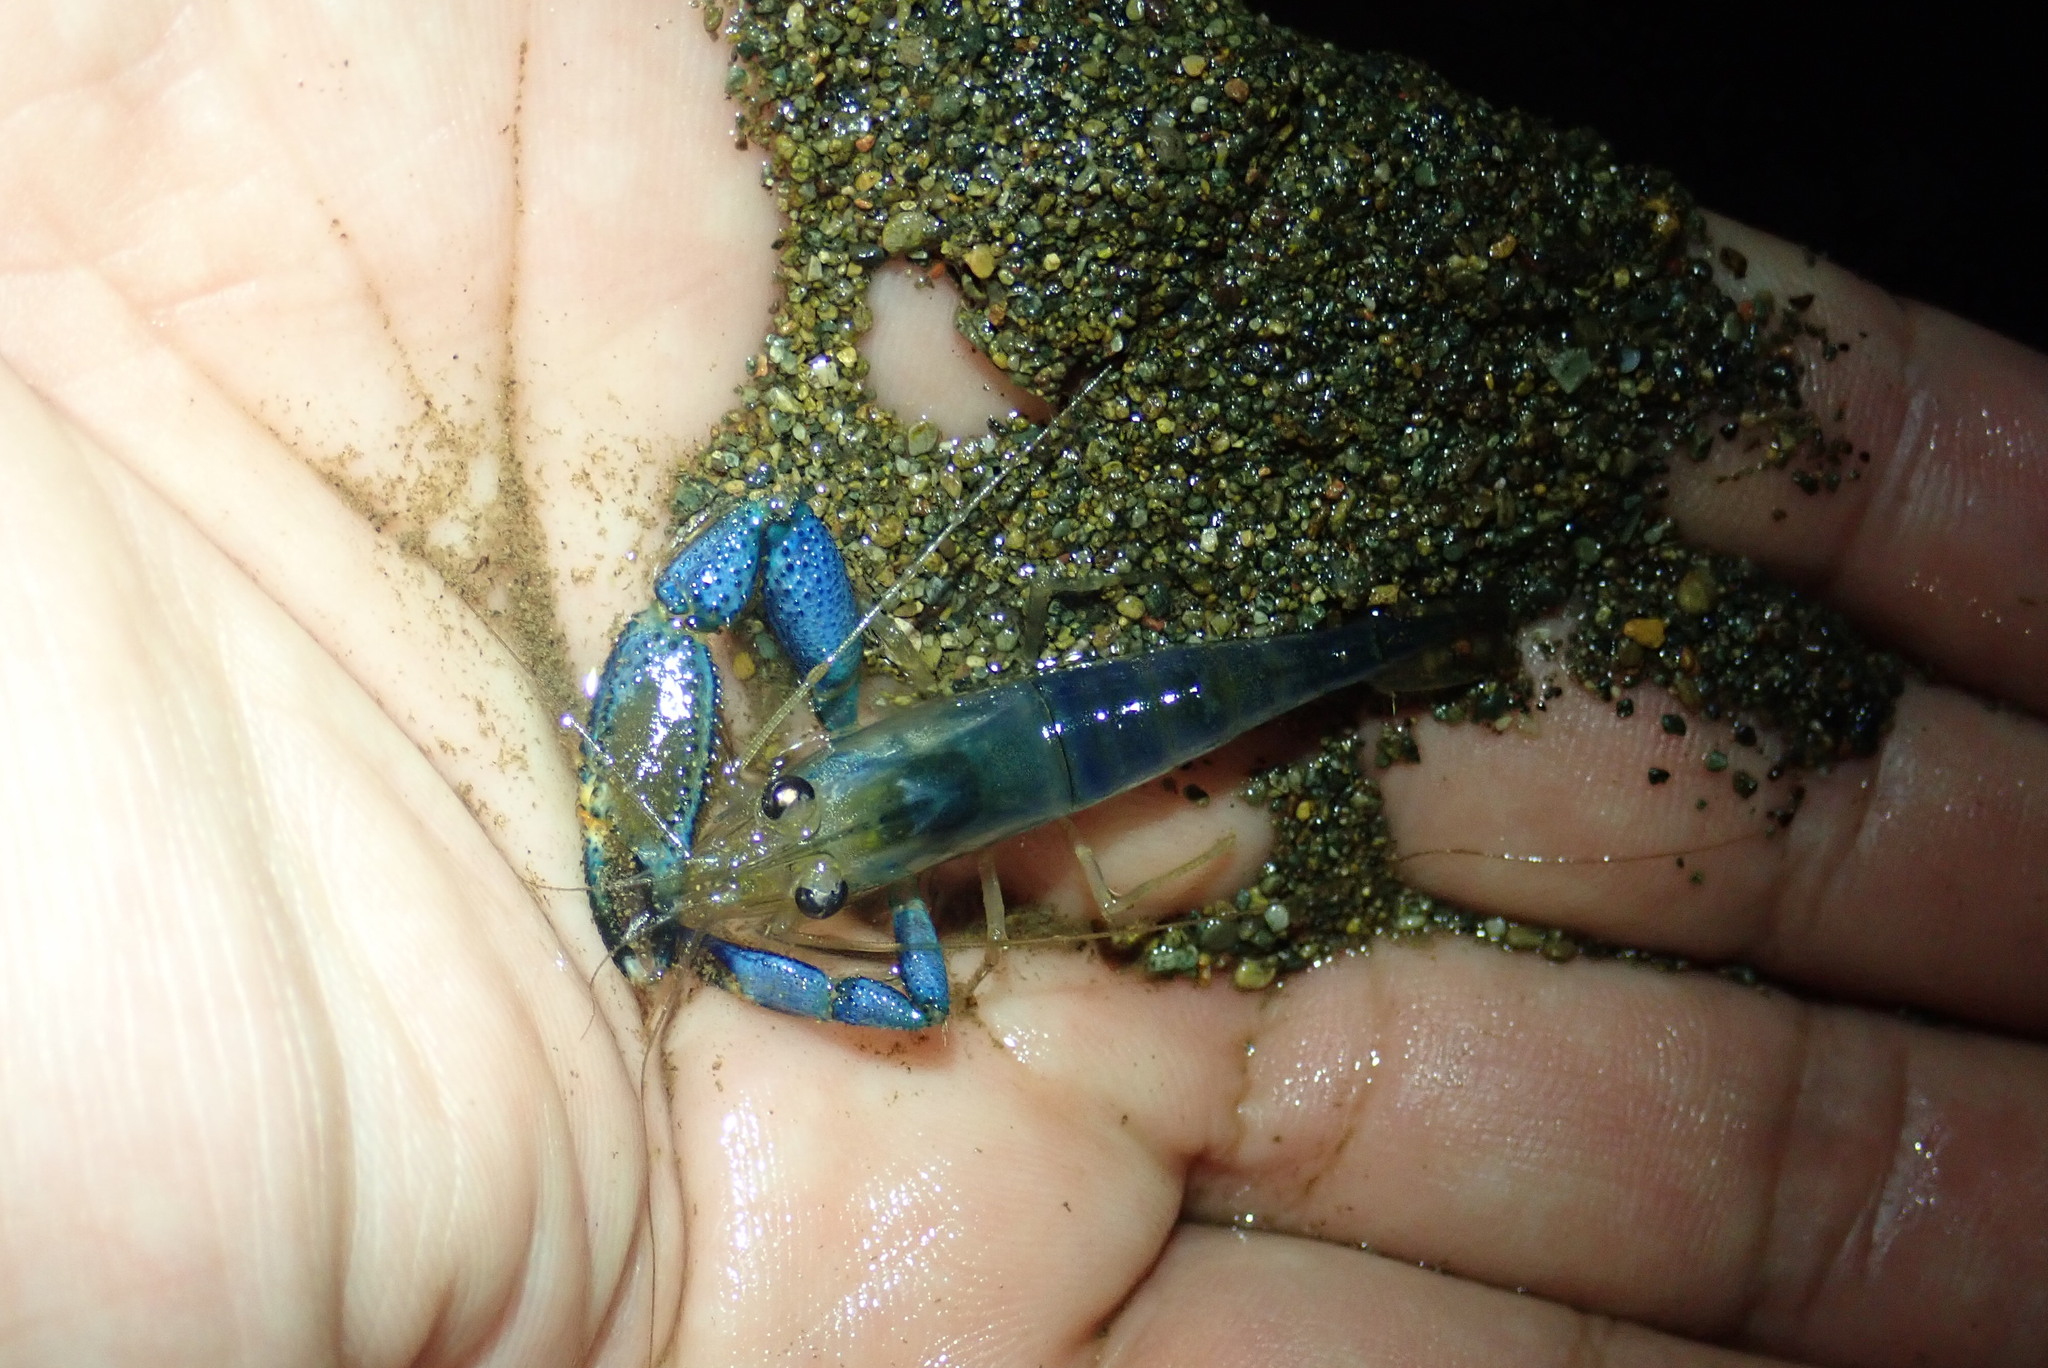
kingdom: Animalia
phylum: Arthropoda
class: Malacostraca
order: Decapoda
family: Palaemonidae
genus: Macrobrachium
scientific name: Macrobrachium hancocki
